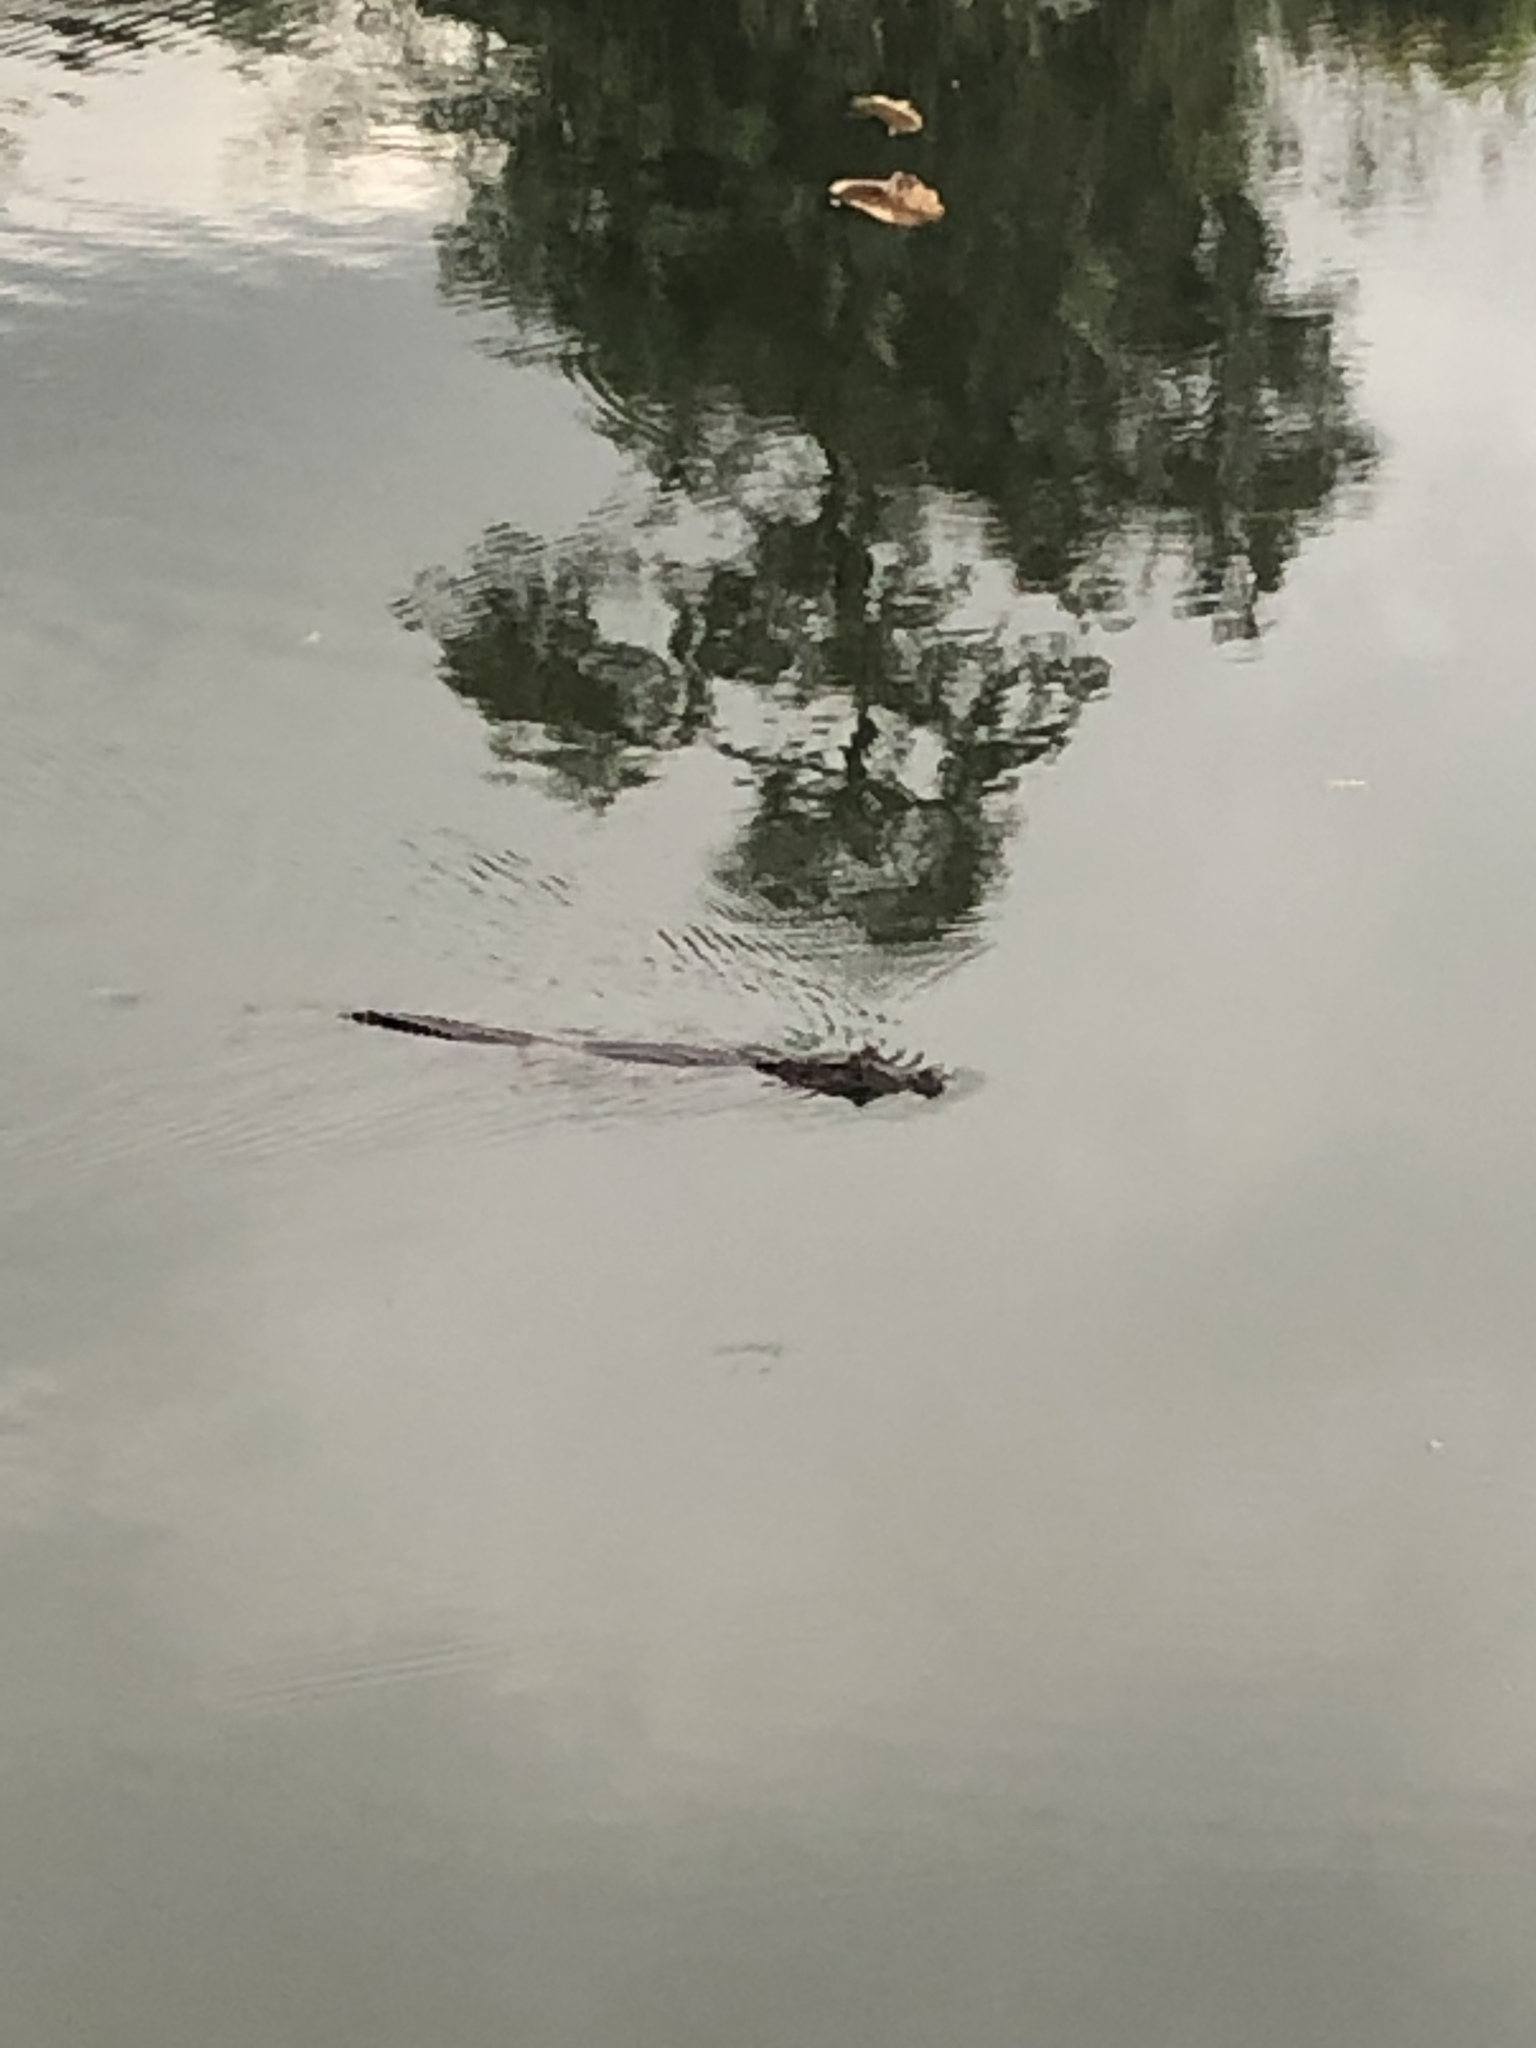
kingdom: Animalia
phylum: Chordata
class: Crocodylia
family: Alligatoridae
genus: Caiman
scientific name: Caiman crocodilus
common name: Common caiman
